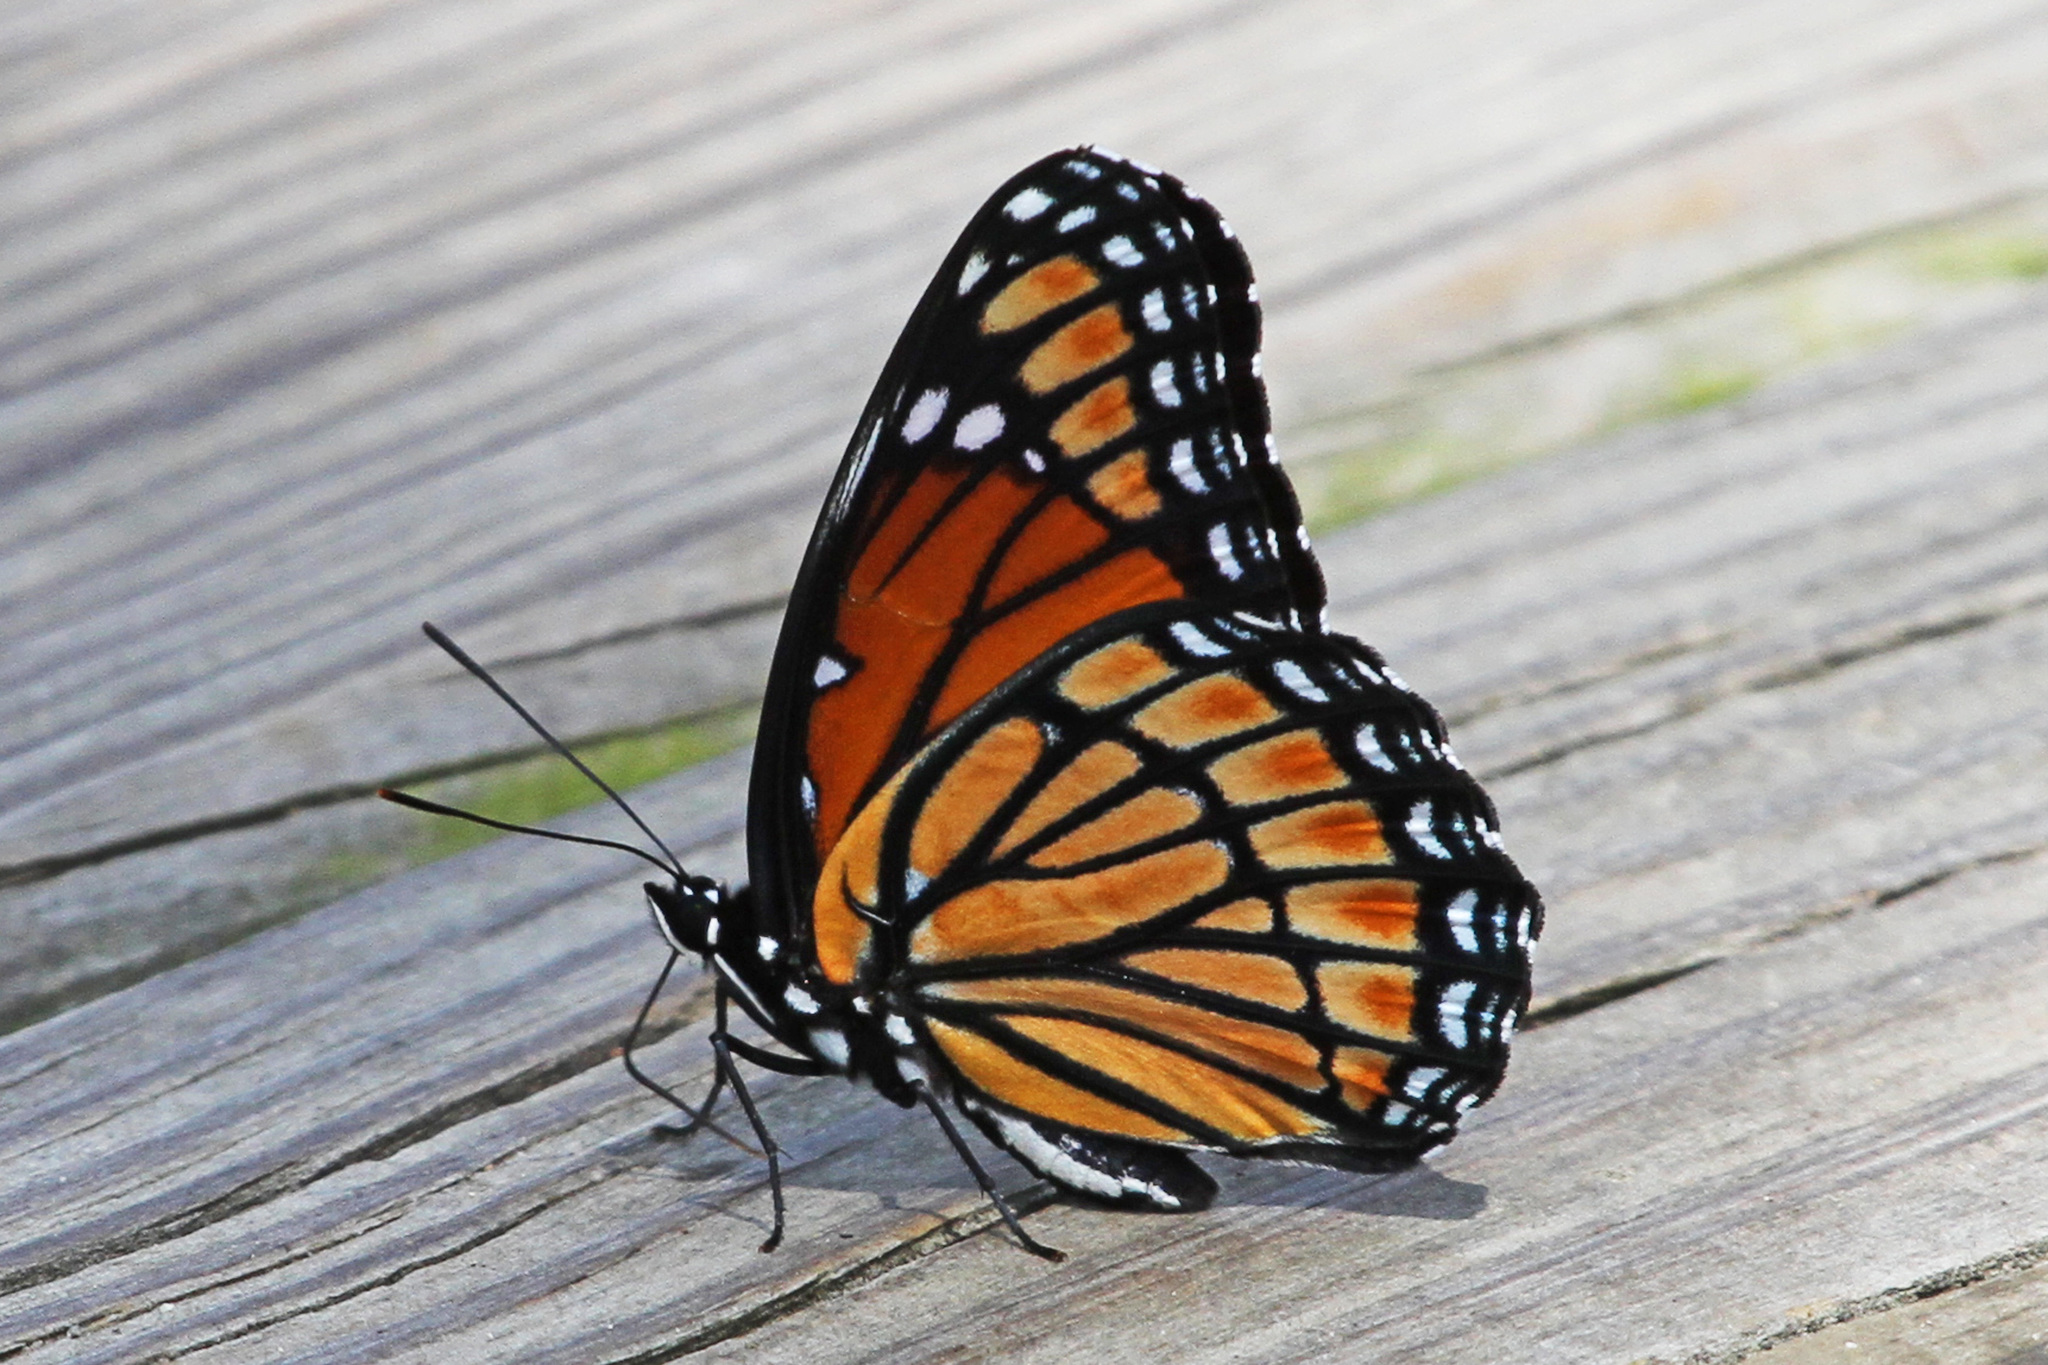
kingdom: Animalia
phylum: Arthropoda
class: Insecta
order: Lepidoptera
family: Nymphalidae
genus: Limenitis
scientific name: Limenitis archippus
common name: Viceroy
